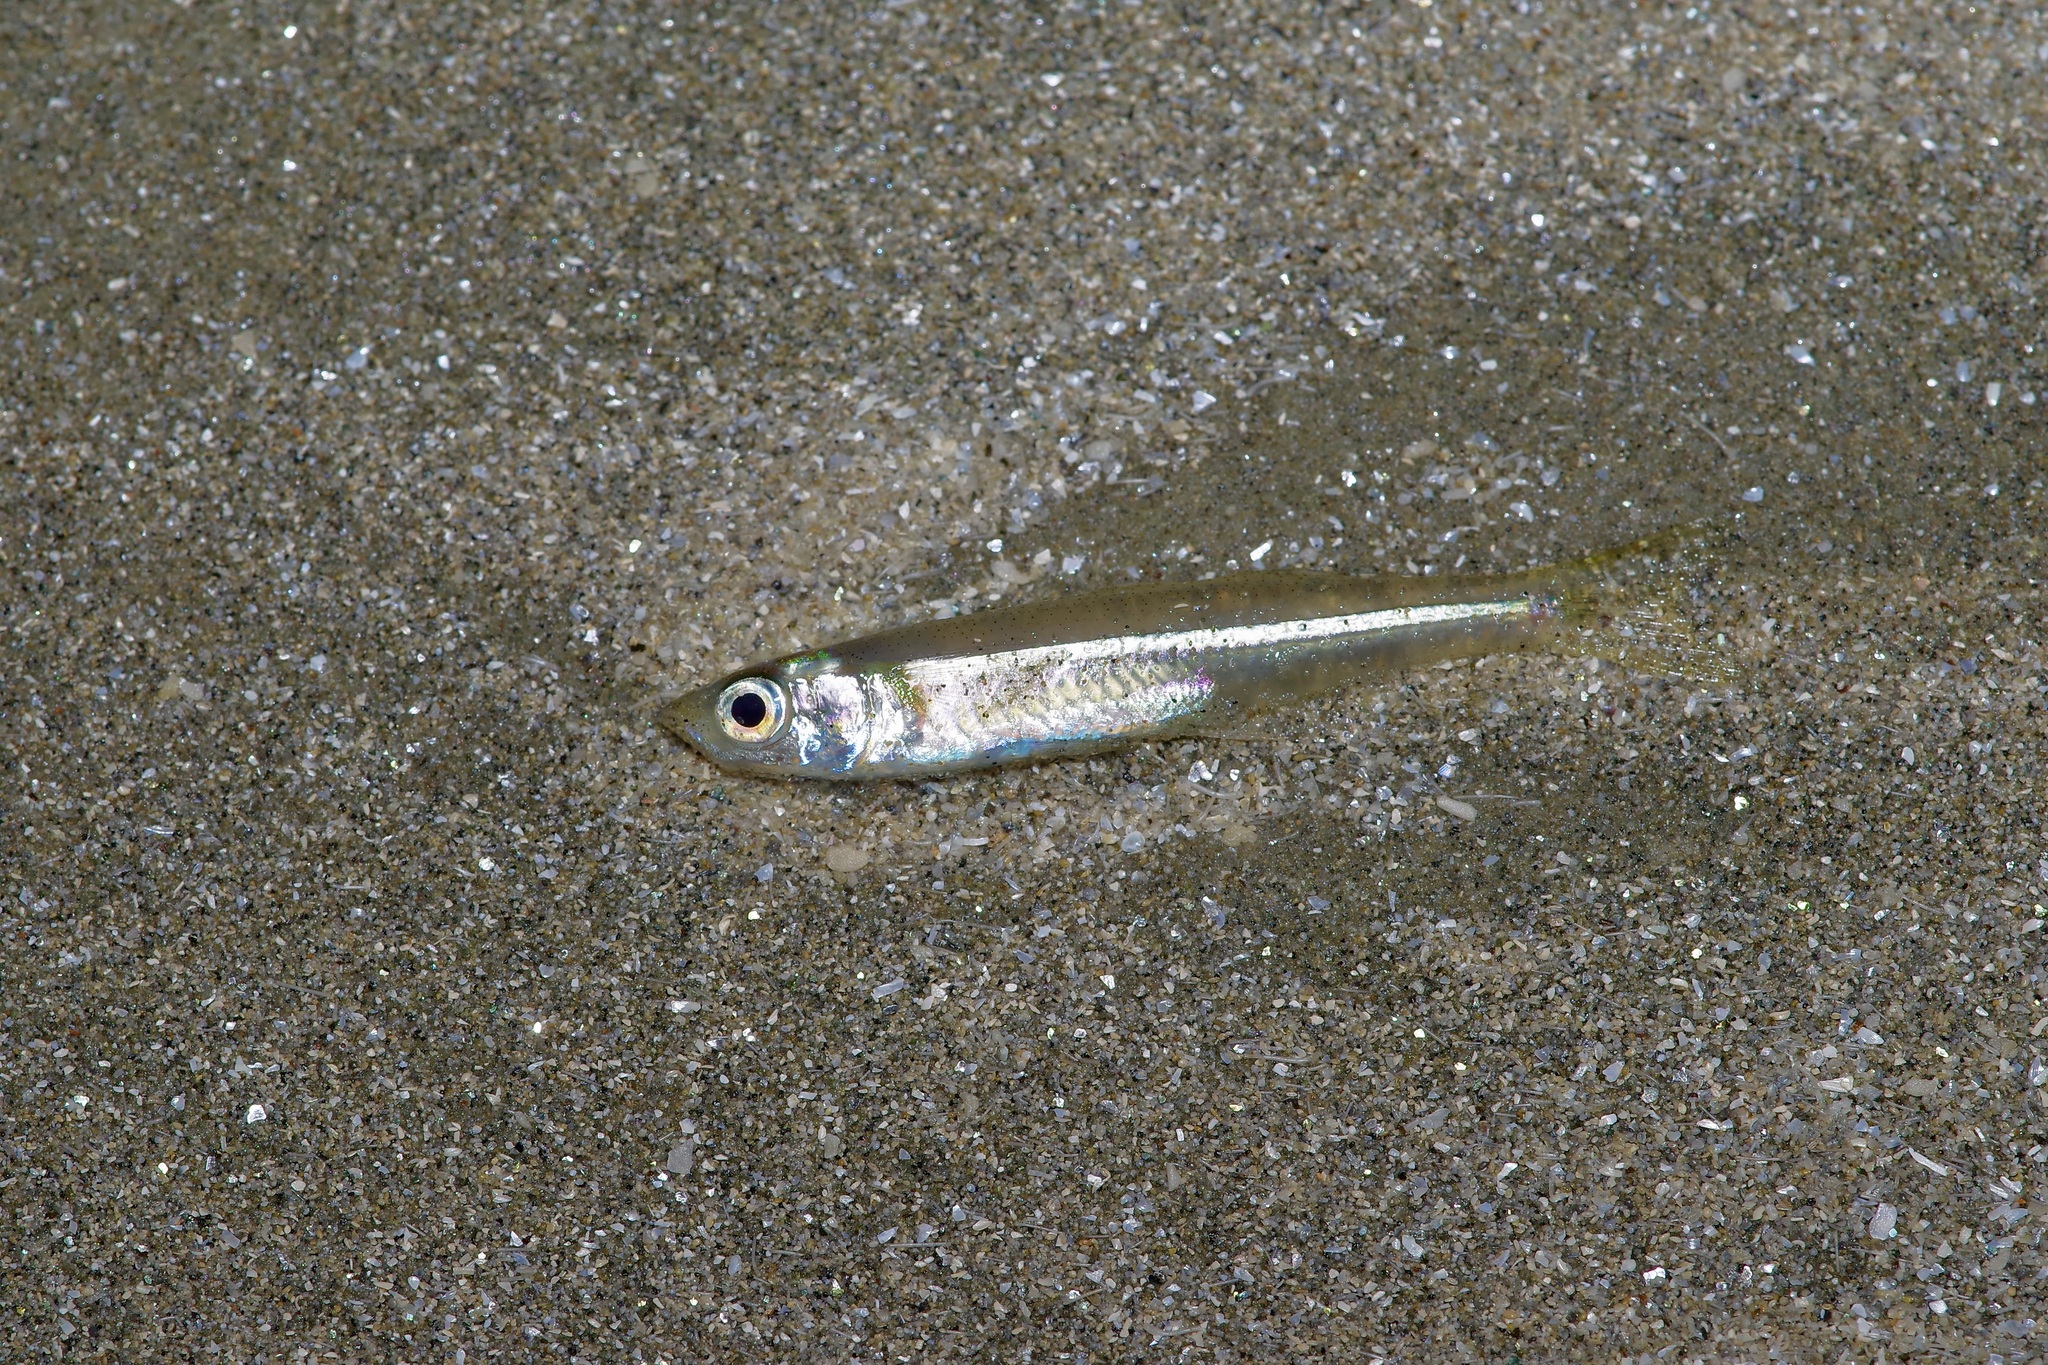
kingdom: Animalia
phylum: Chordata
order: Atheriniformes
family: Atherinopsidae
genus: Menidia
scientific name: Menidia beryllina
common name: Inland silverside
